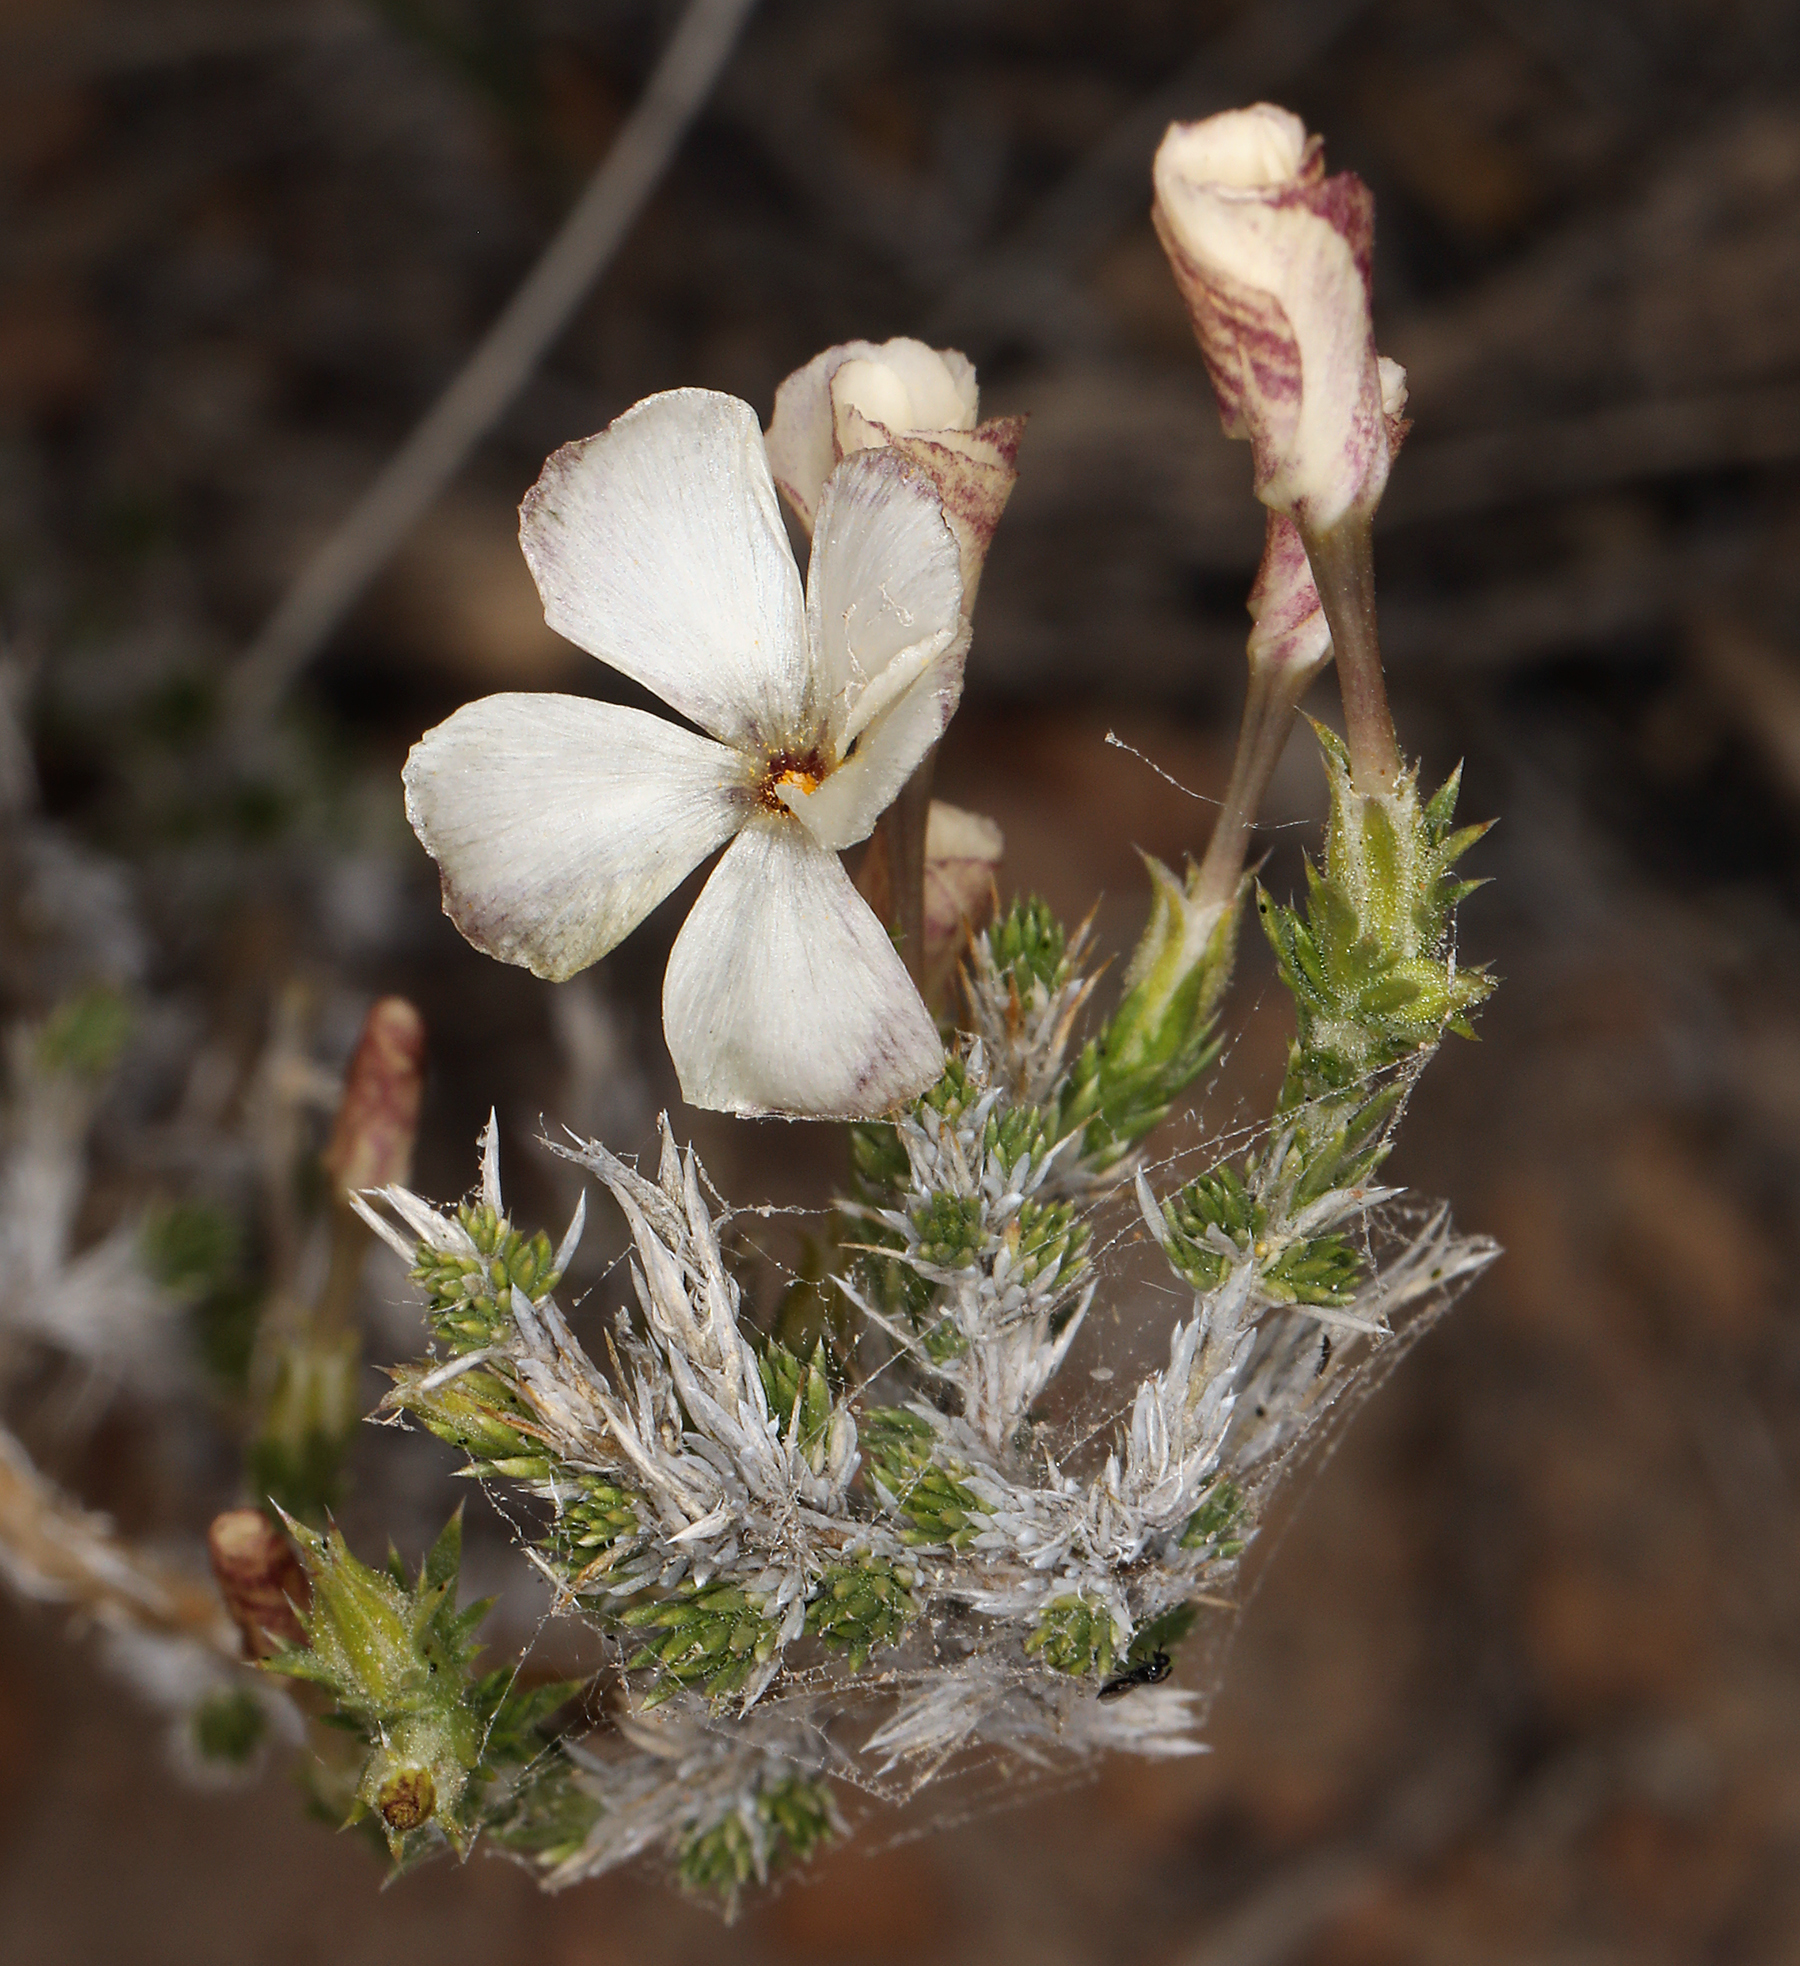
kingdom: Plantae
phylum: Tracheophyta
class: Magnoliopsida
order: Ericales
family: Polemoniaceae
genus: Linanthus
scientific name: Linanthus pungens
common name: Granite prickly phlox
